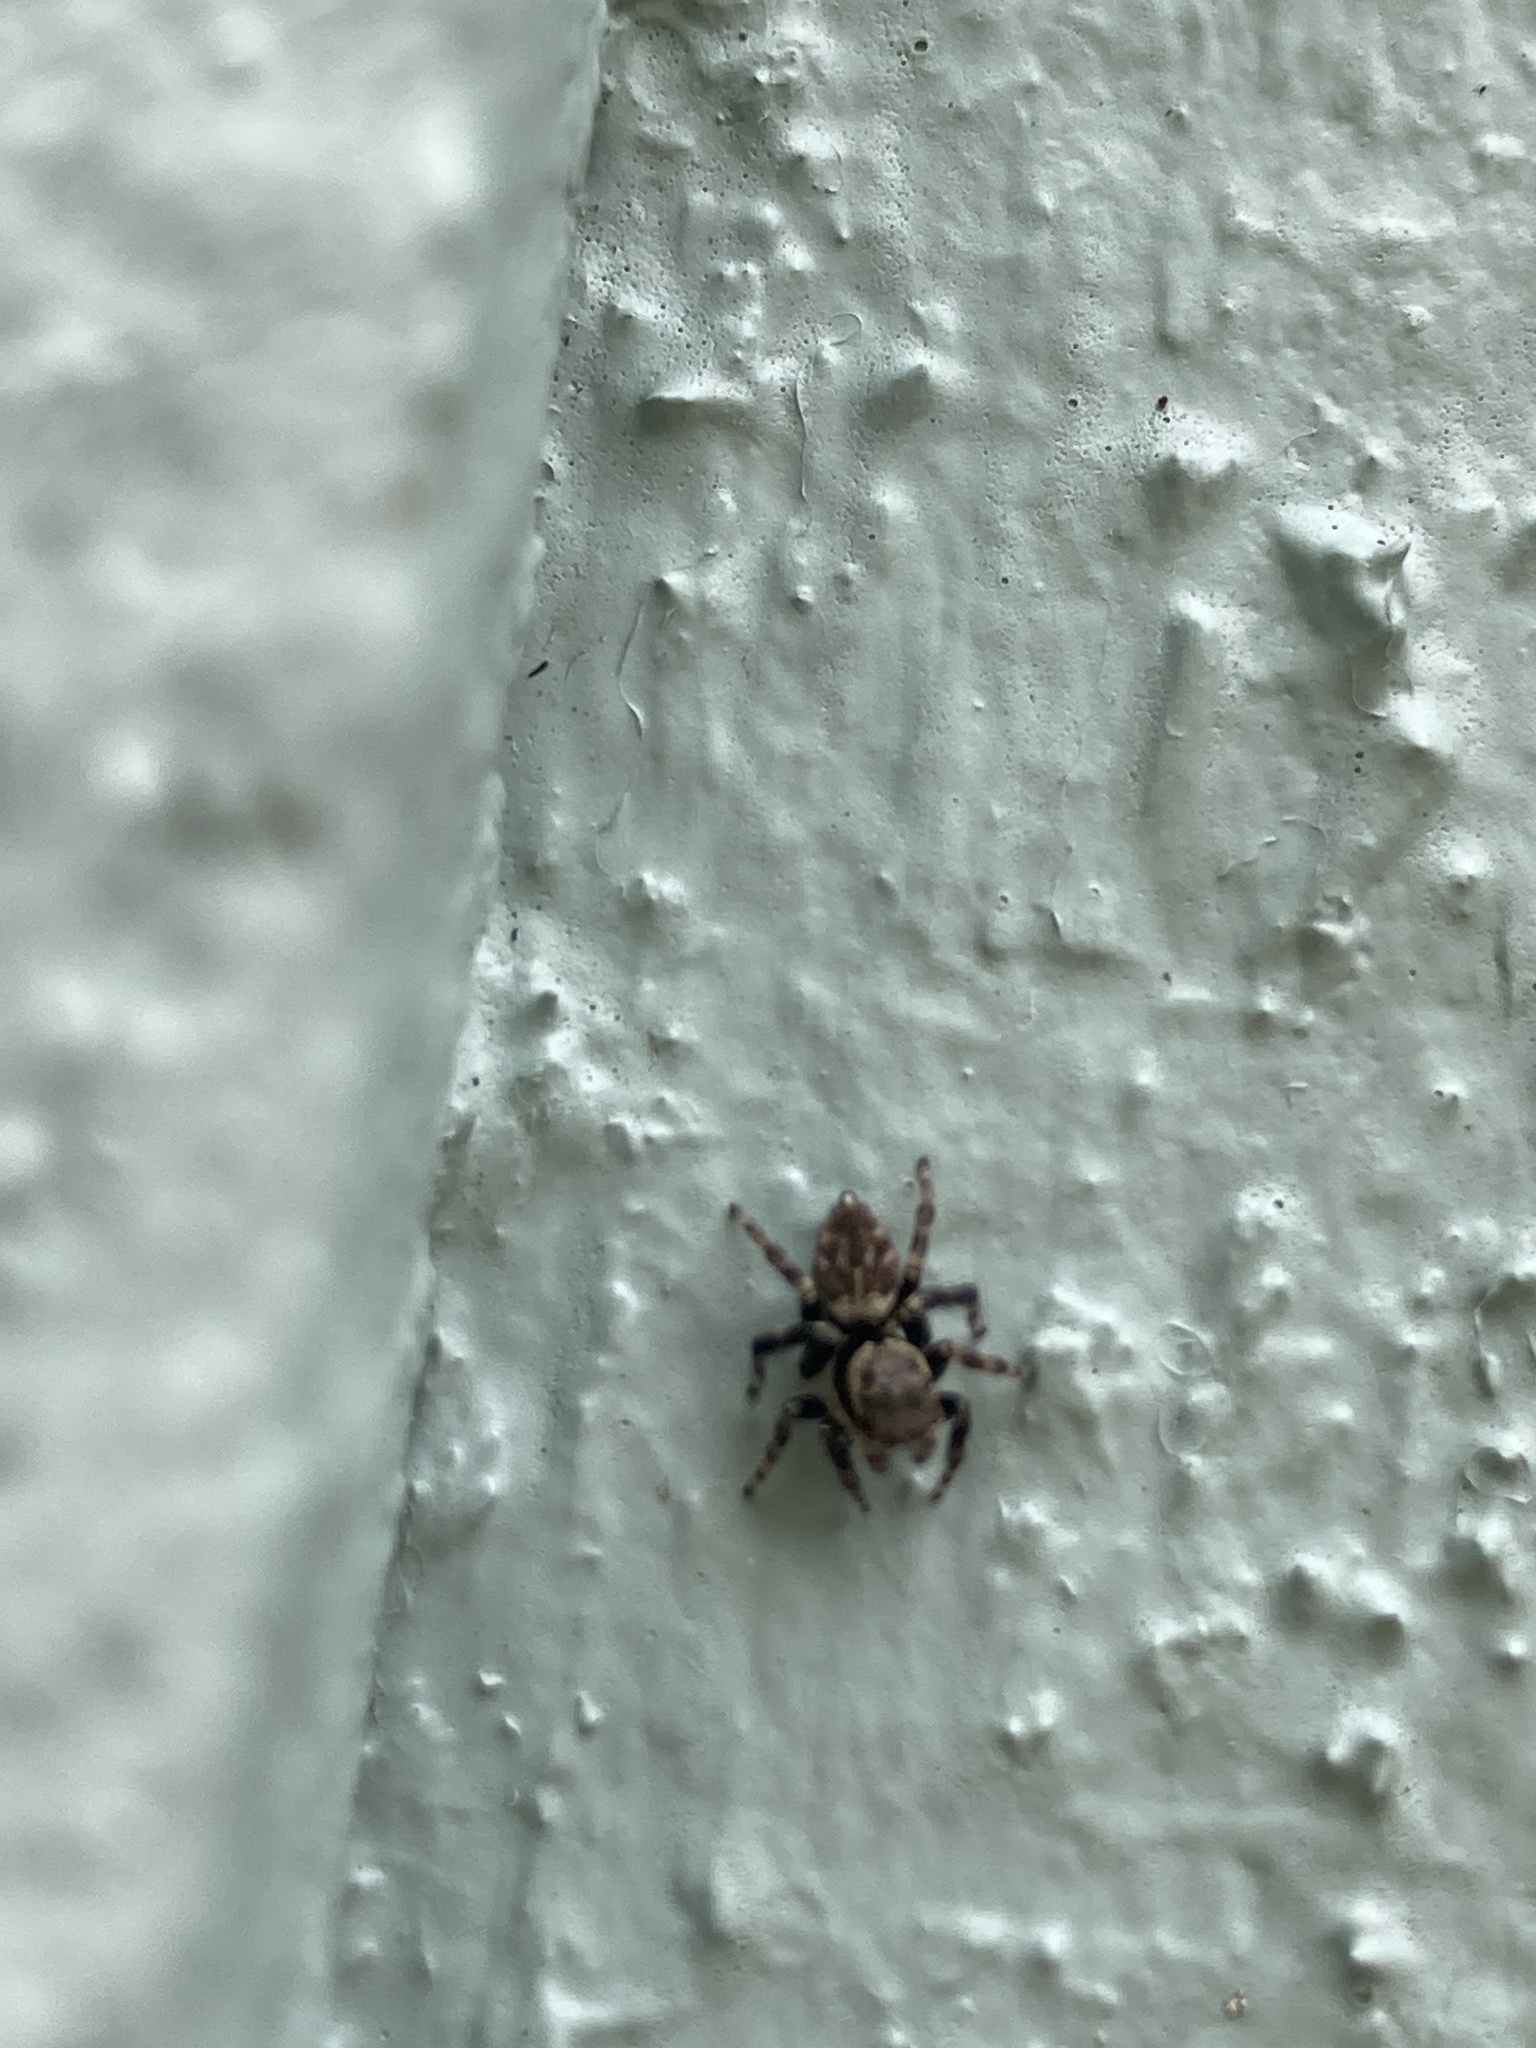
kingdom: Animalia
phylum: Arthropoda
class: Arachnida
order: Araneae
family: Salticidae
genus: Maratus
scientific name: Maratus griseus
